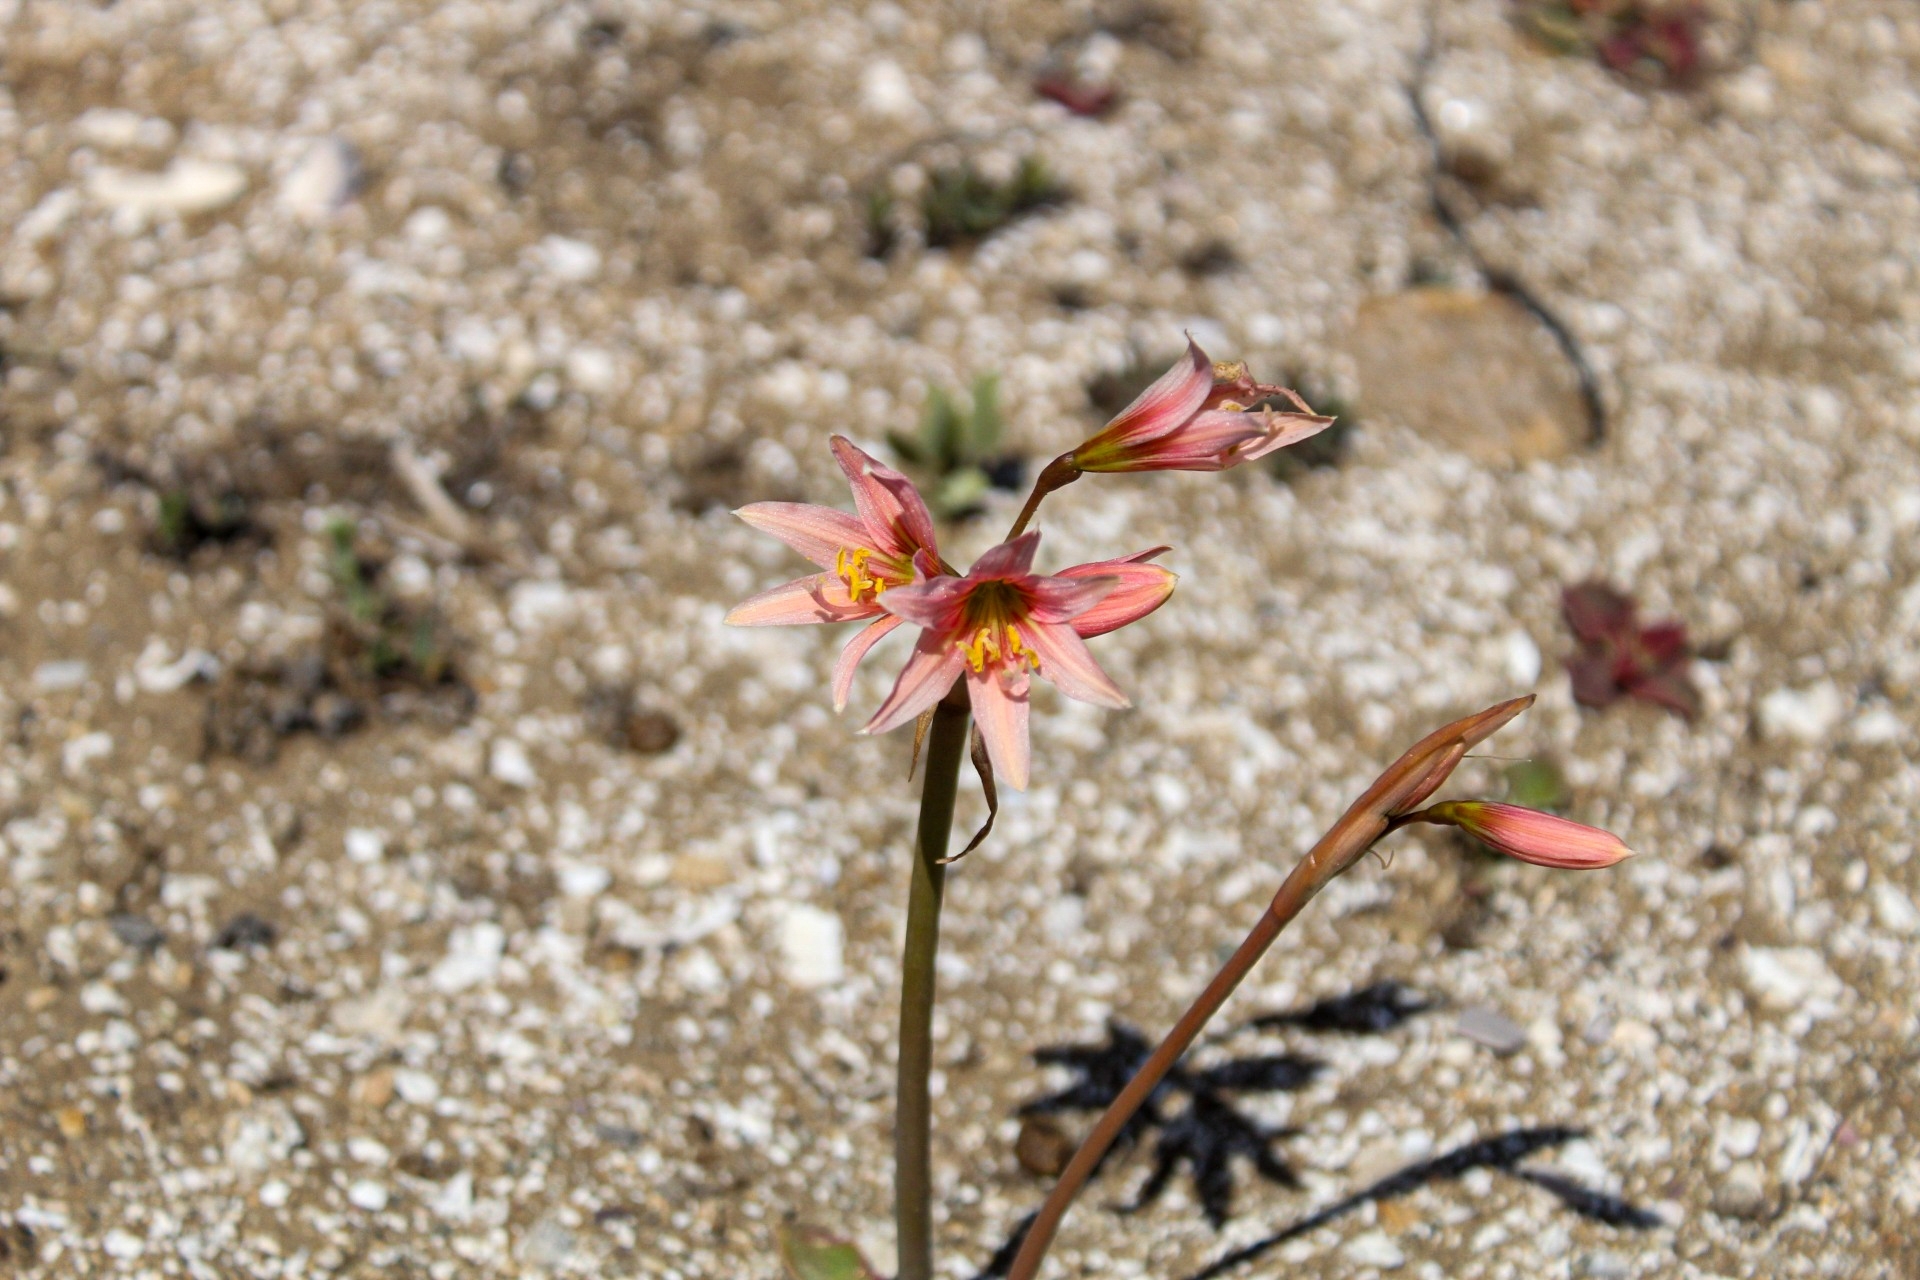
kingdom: Plantae
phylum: Tracheophyta
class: Liliopsida
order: Asparagales
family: Amaryllidaceae
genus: Zephyranthes
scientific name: Zephyranthes advena
